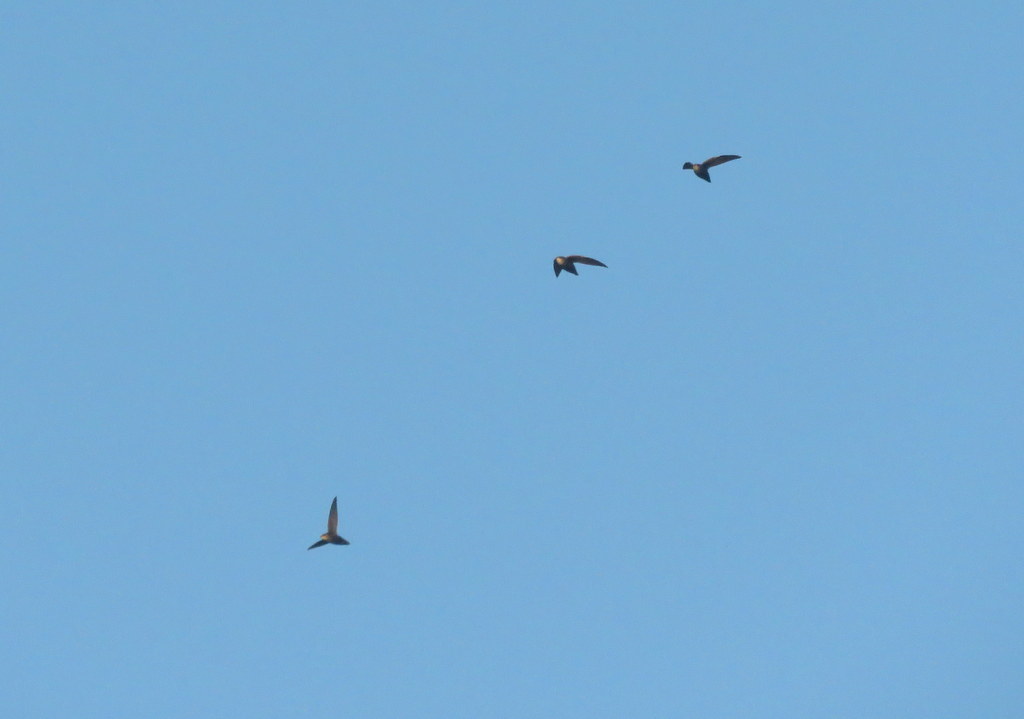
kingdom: Animalia
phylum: Chordata
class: Aves
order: Apodiformes
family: Apodidae
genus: Chaetura
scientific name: Chaetura meridionalis
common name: Sick's swift
